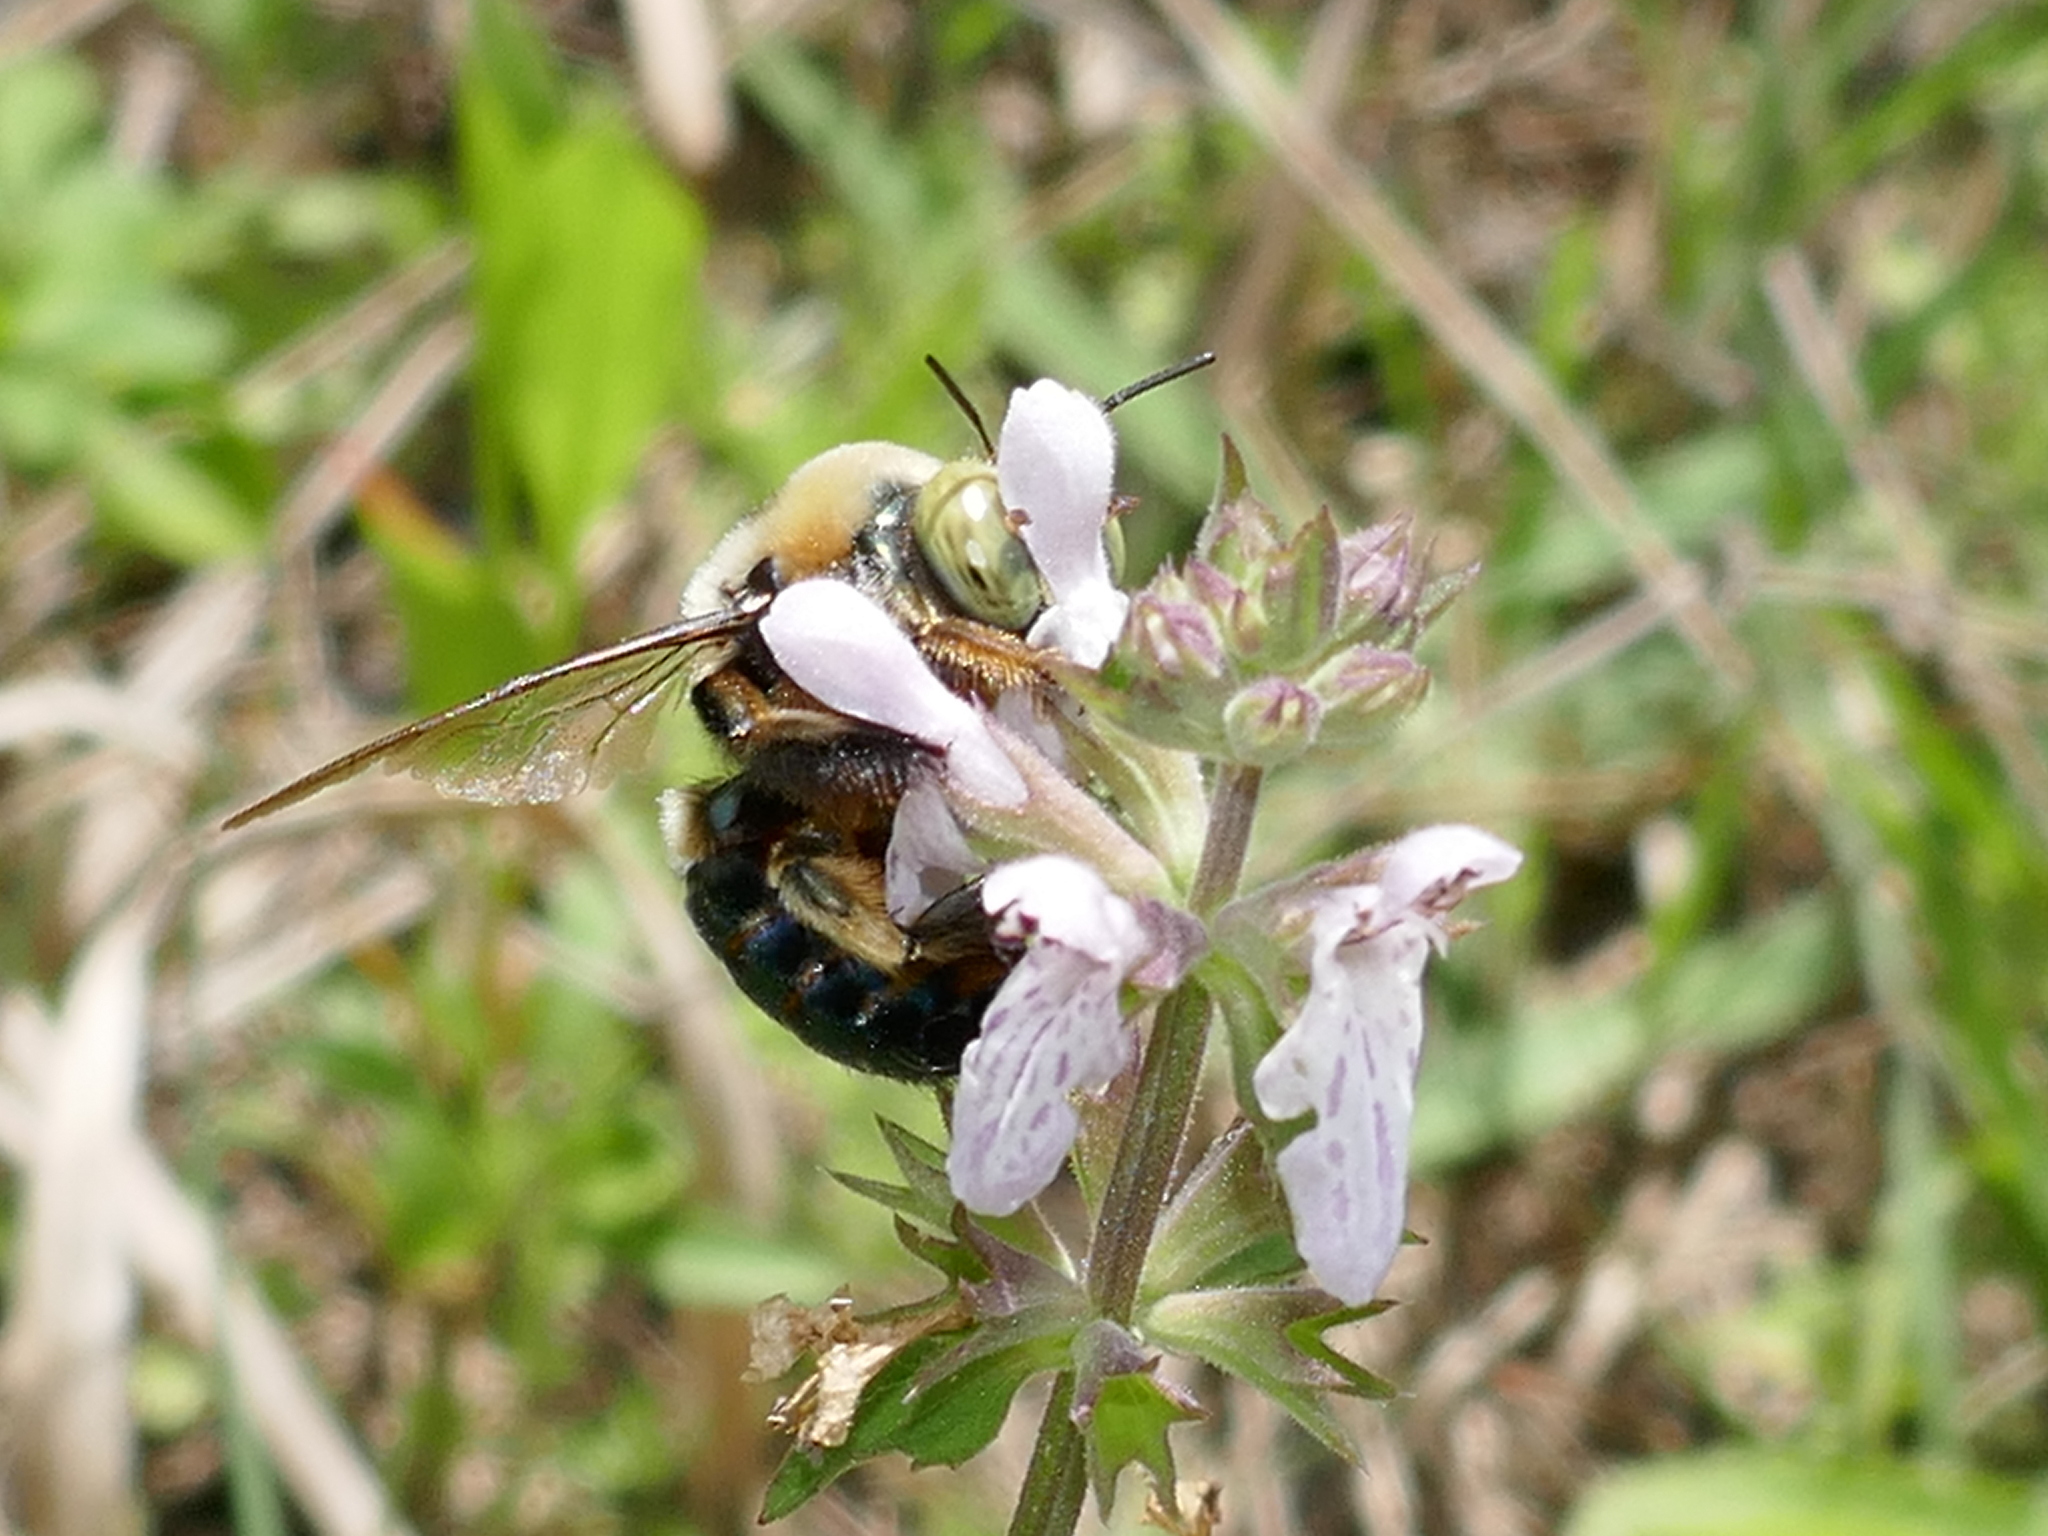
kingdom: Animalia
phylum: Arthropoda
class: Insecta
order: Hymenoptera
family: Apidae
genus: Xylocopa
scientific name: Xylocopa micans
